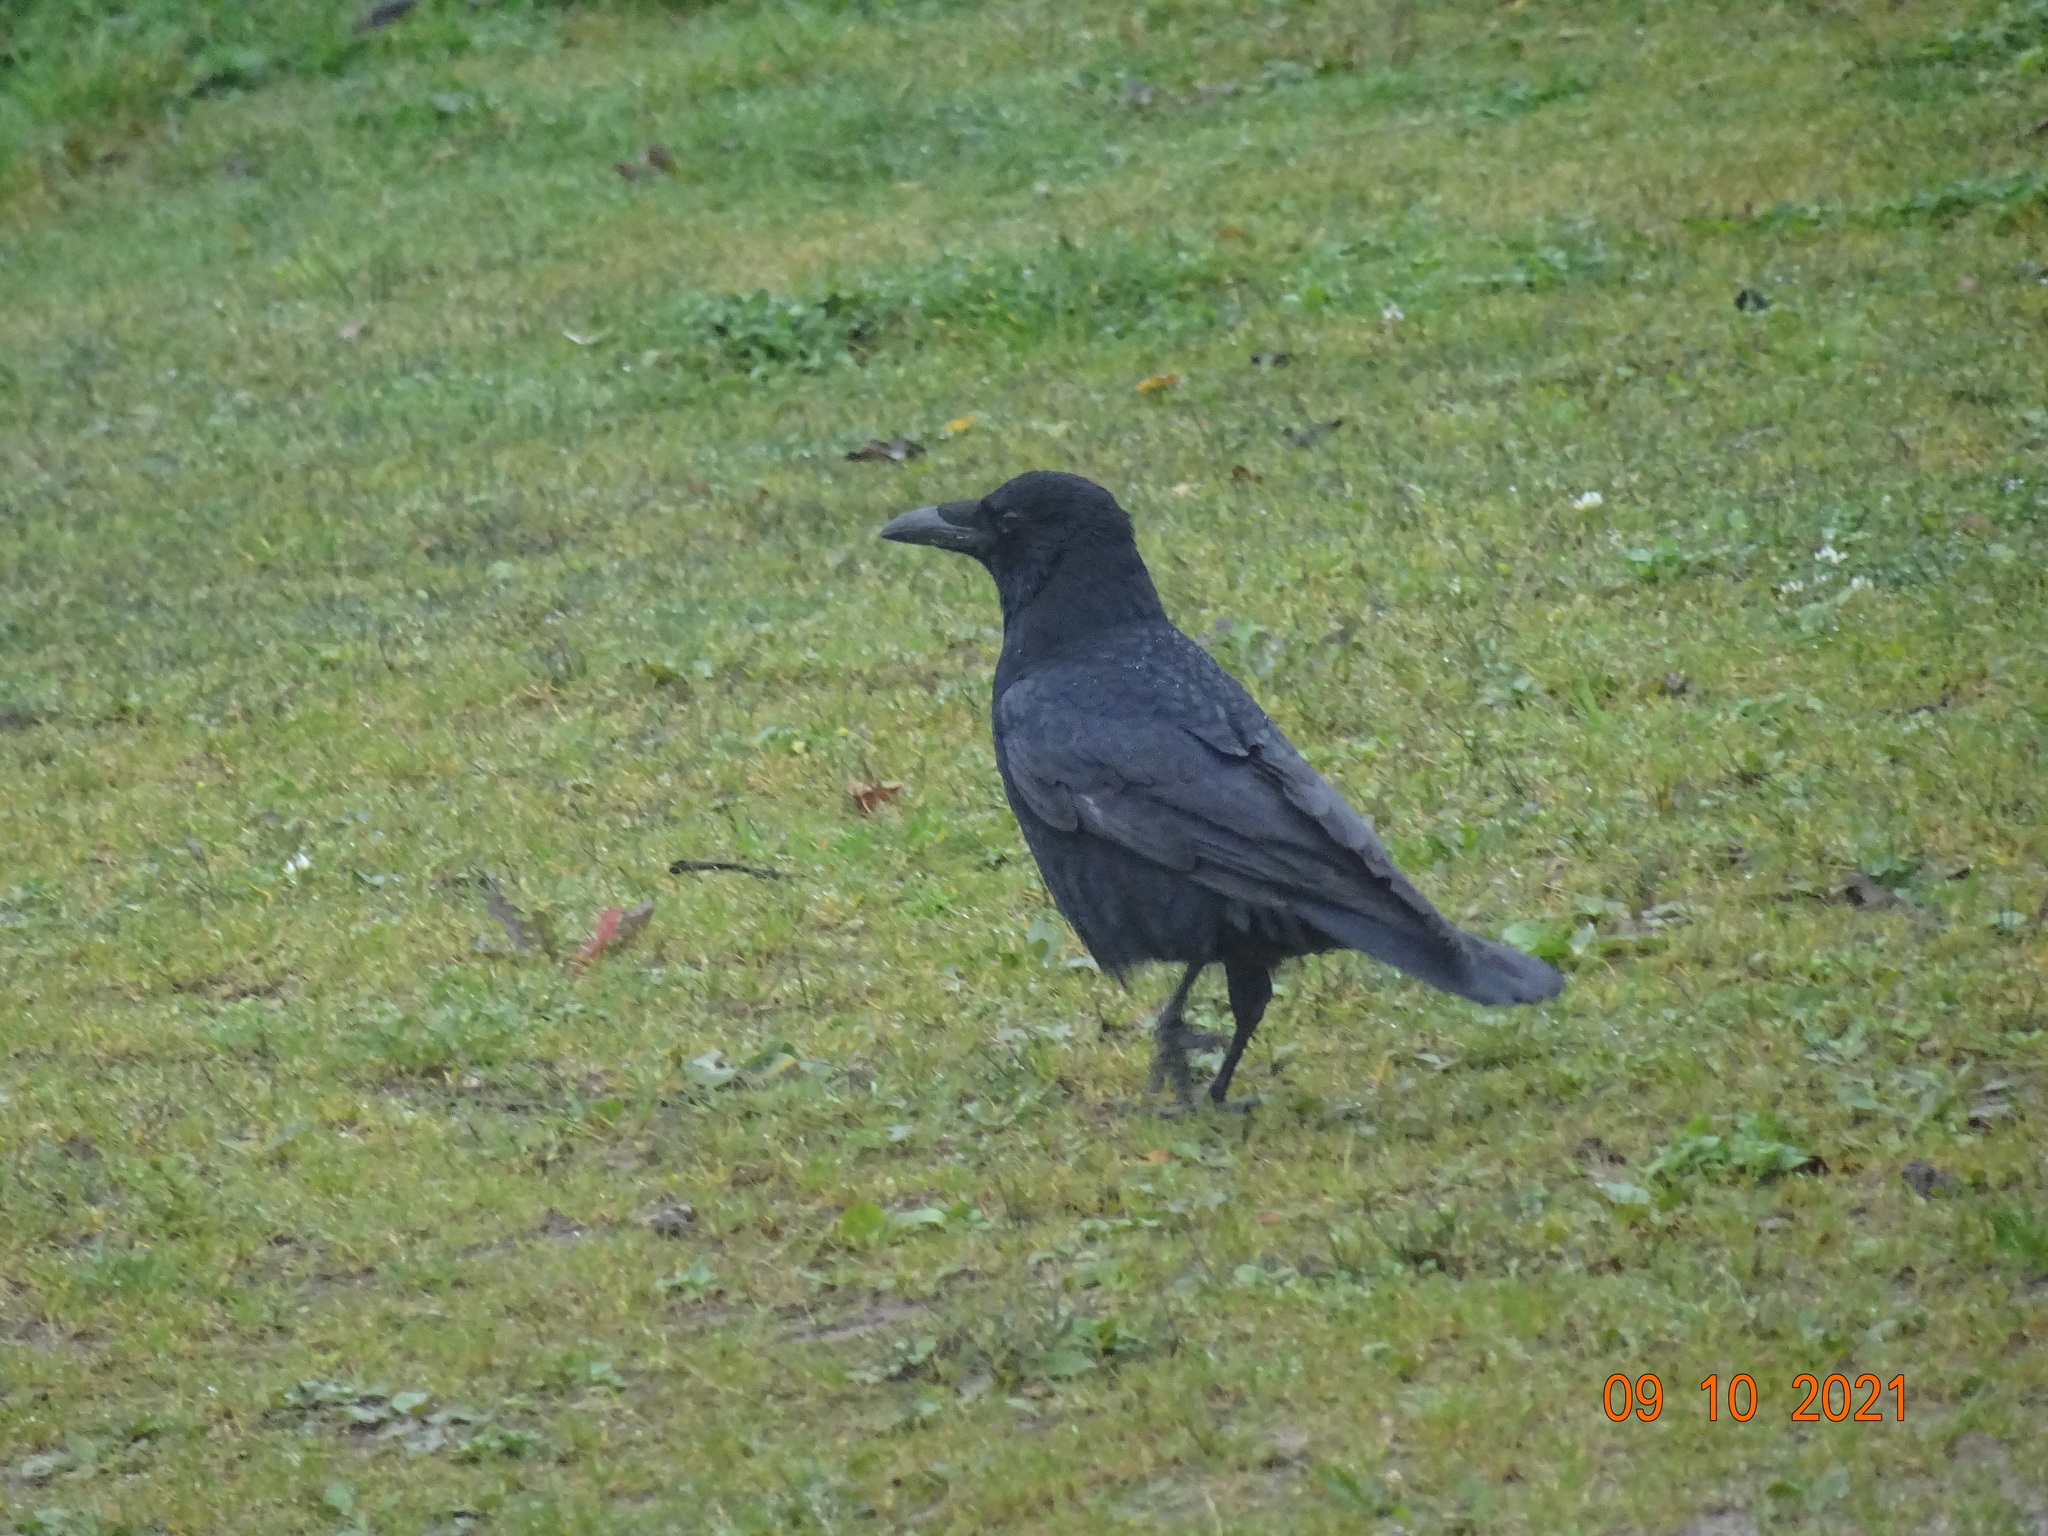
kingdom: Animalia
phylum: Chordata
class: Aves
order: Passeriformes
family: Corvidae
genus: Corvus
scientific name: Corvus corone
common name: Carrion crow
